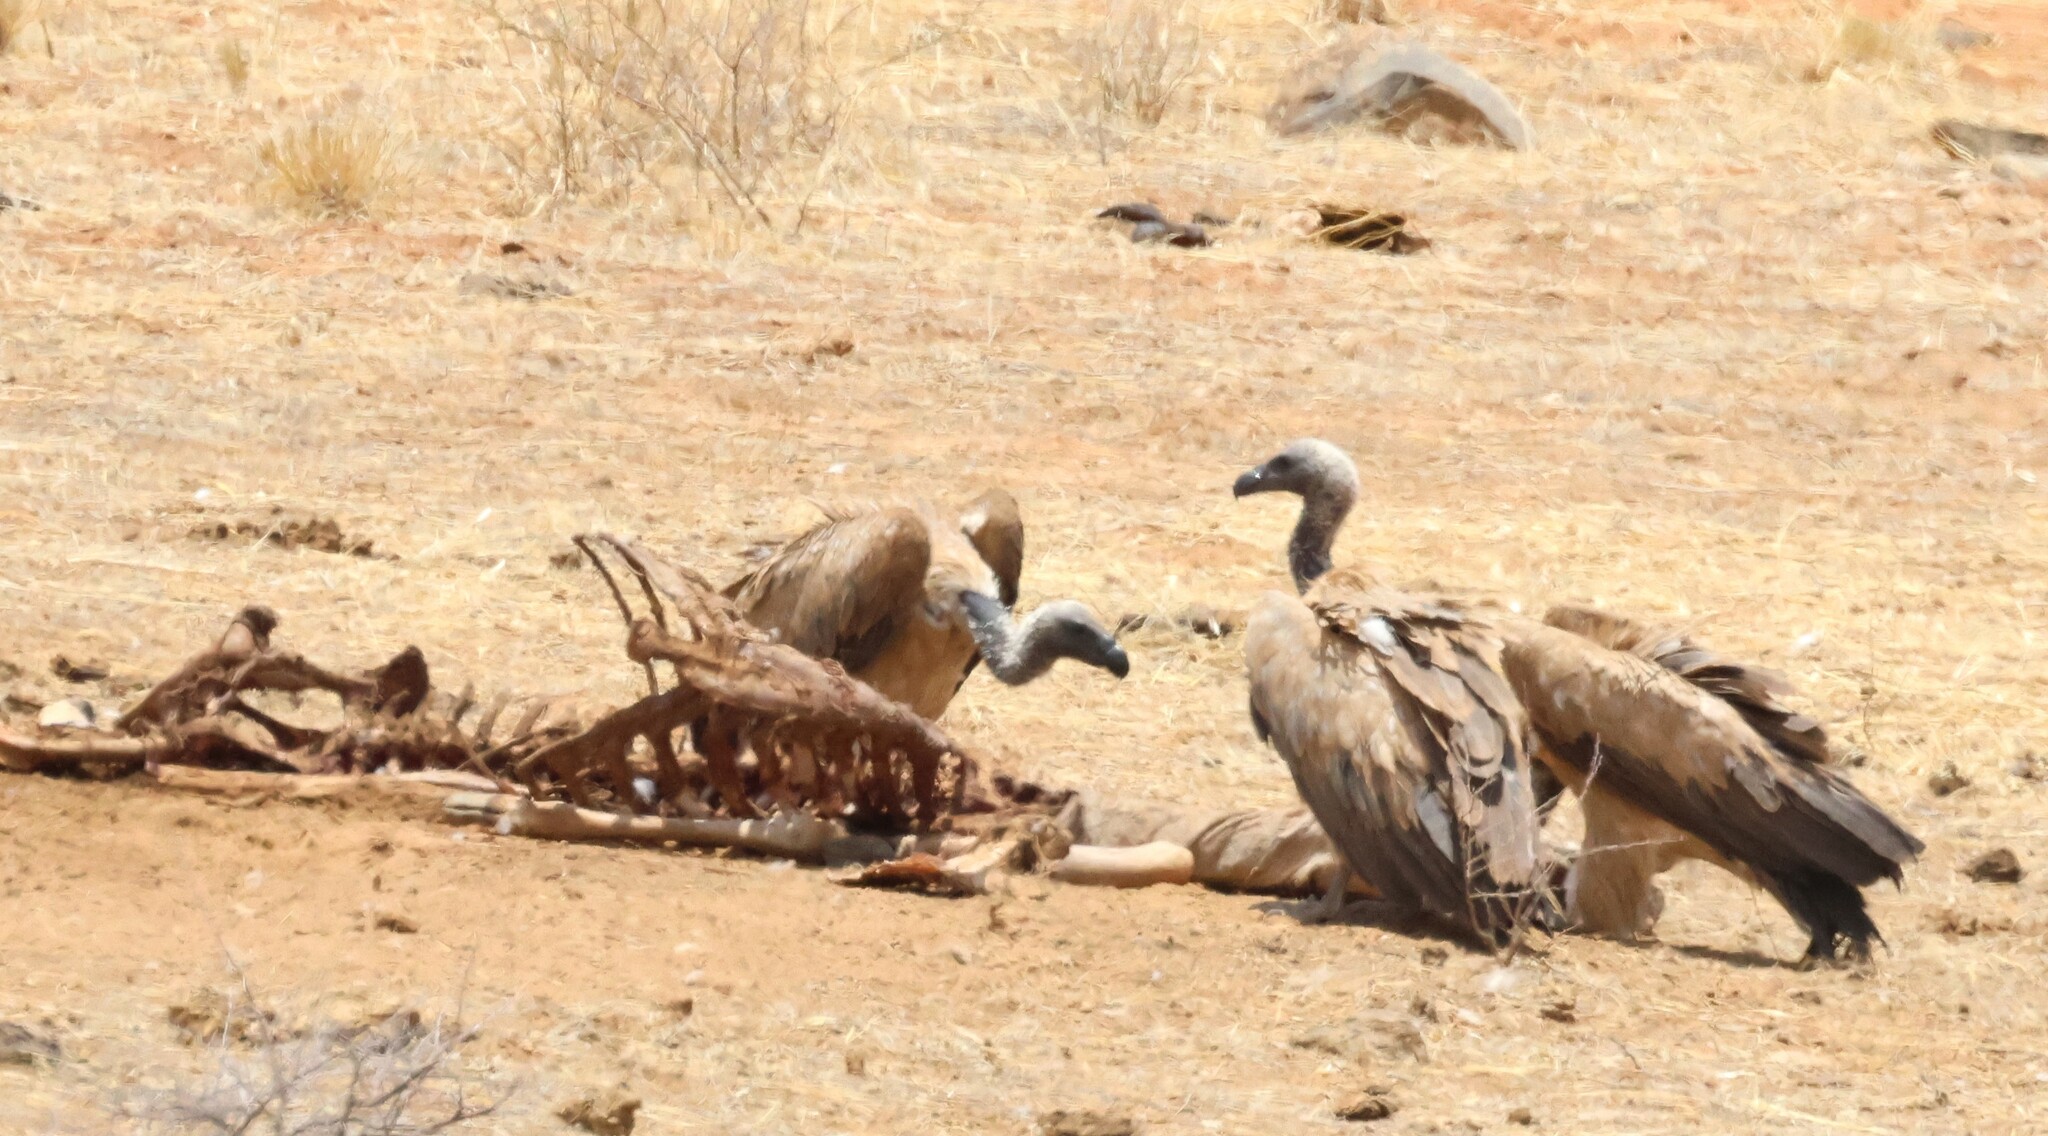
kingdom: Animalia
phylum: Chordata
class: Aves
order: Accipitriformes
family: Accipitridae
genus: Gyps
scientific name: Gyps africanus
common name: White-backed vulture
